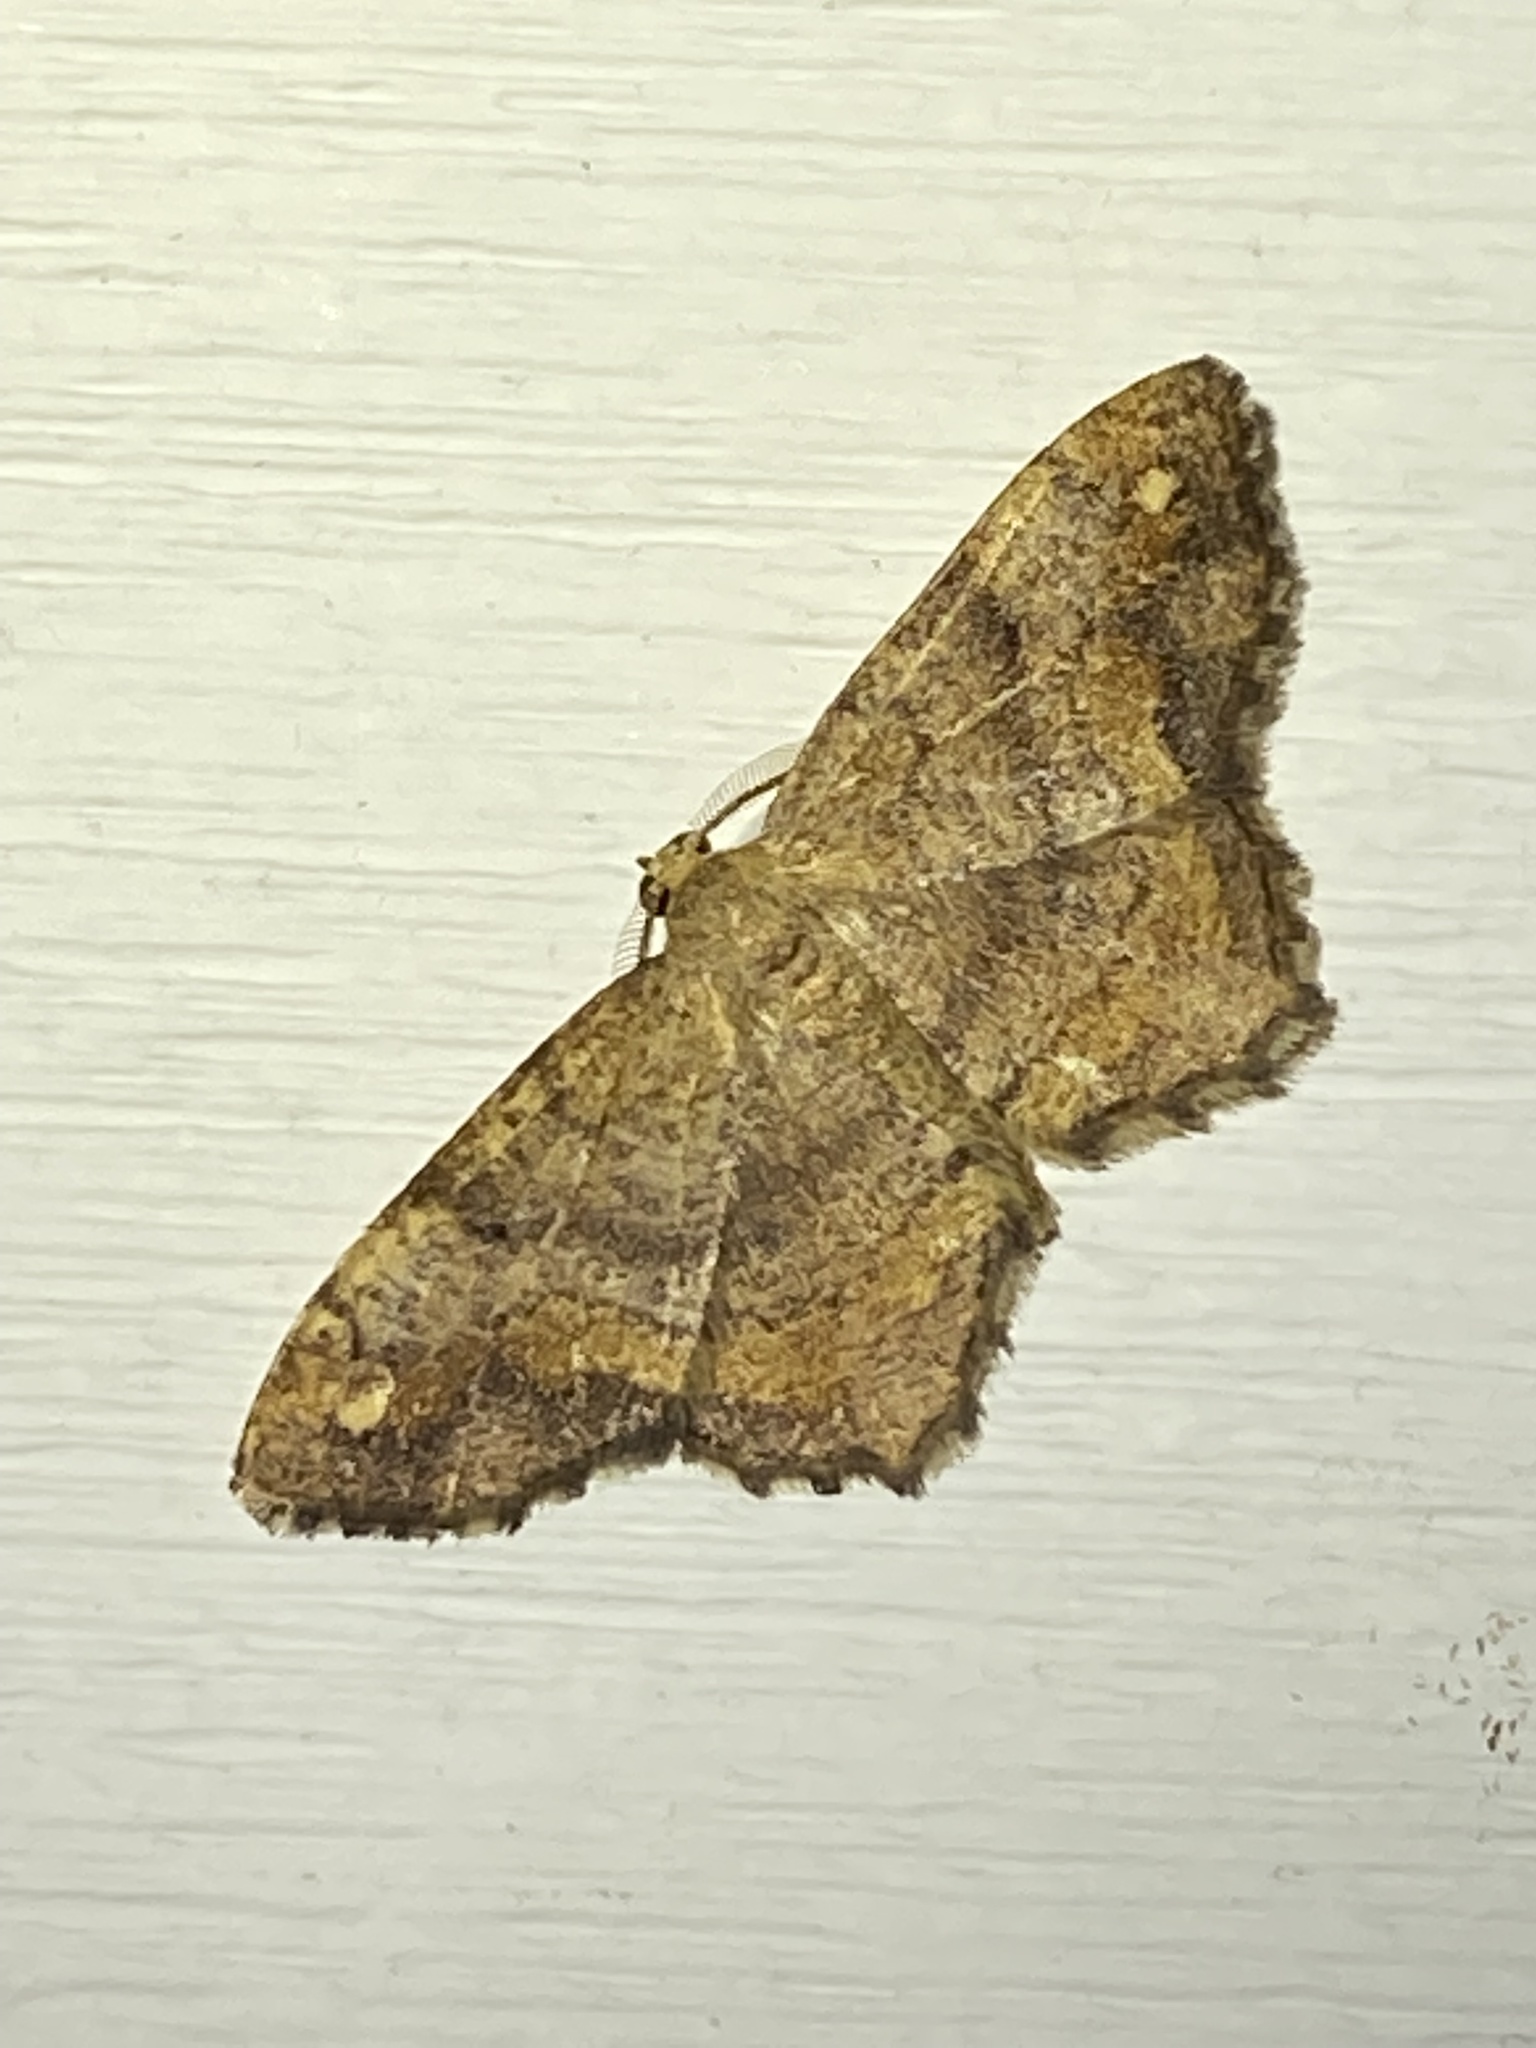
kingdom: Animalia
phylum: Arthropoda
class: Insecta
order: Lepidoptera
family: Geometridae
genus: Hypagyrtis
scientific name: Hypagyrtis unipunctata
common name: One-spotted variant
